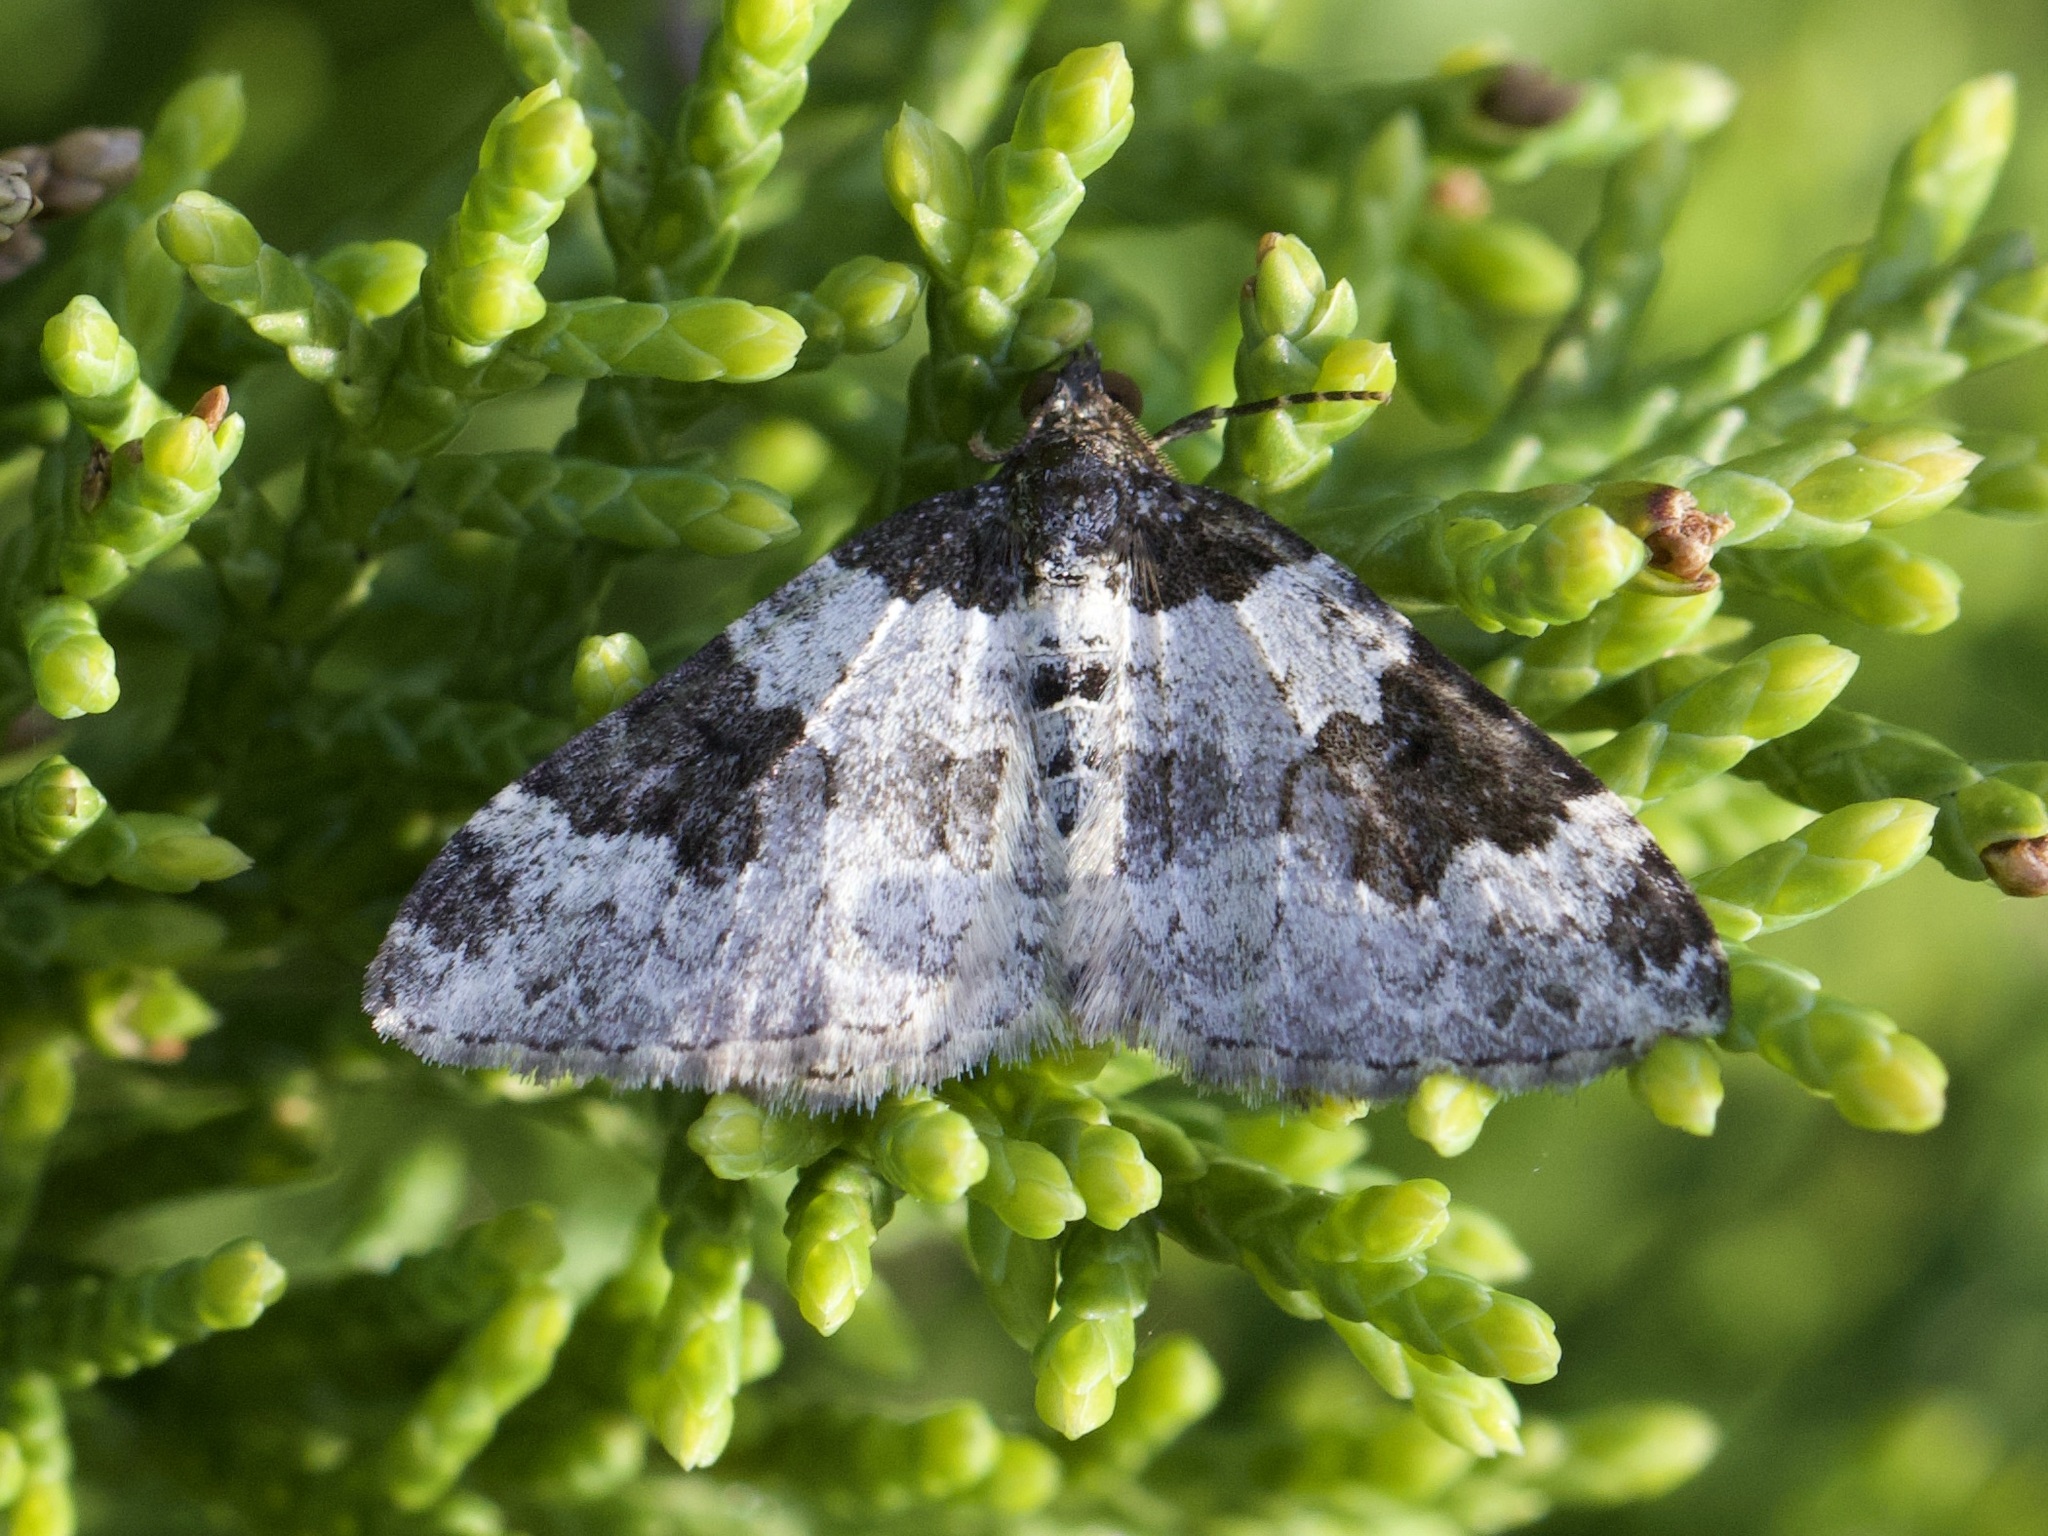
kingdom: Animalia
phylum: Arthropoda
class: Insecta
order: Lepidoptera
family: Geometridae
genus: Xanthorhoe
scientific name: Xanthorhoe fluctuata
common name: Garden carpet
